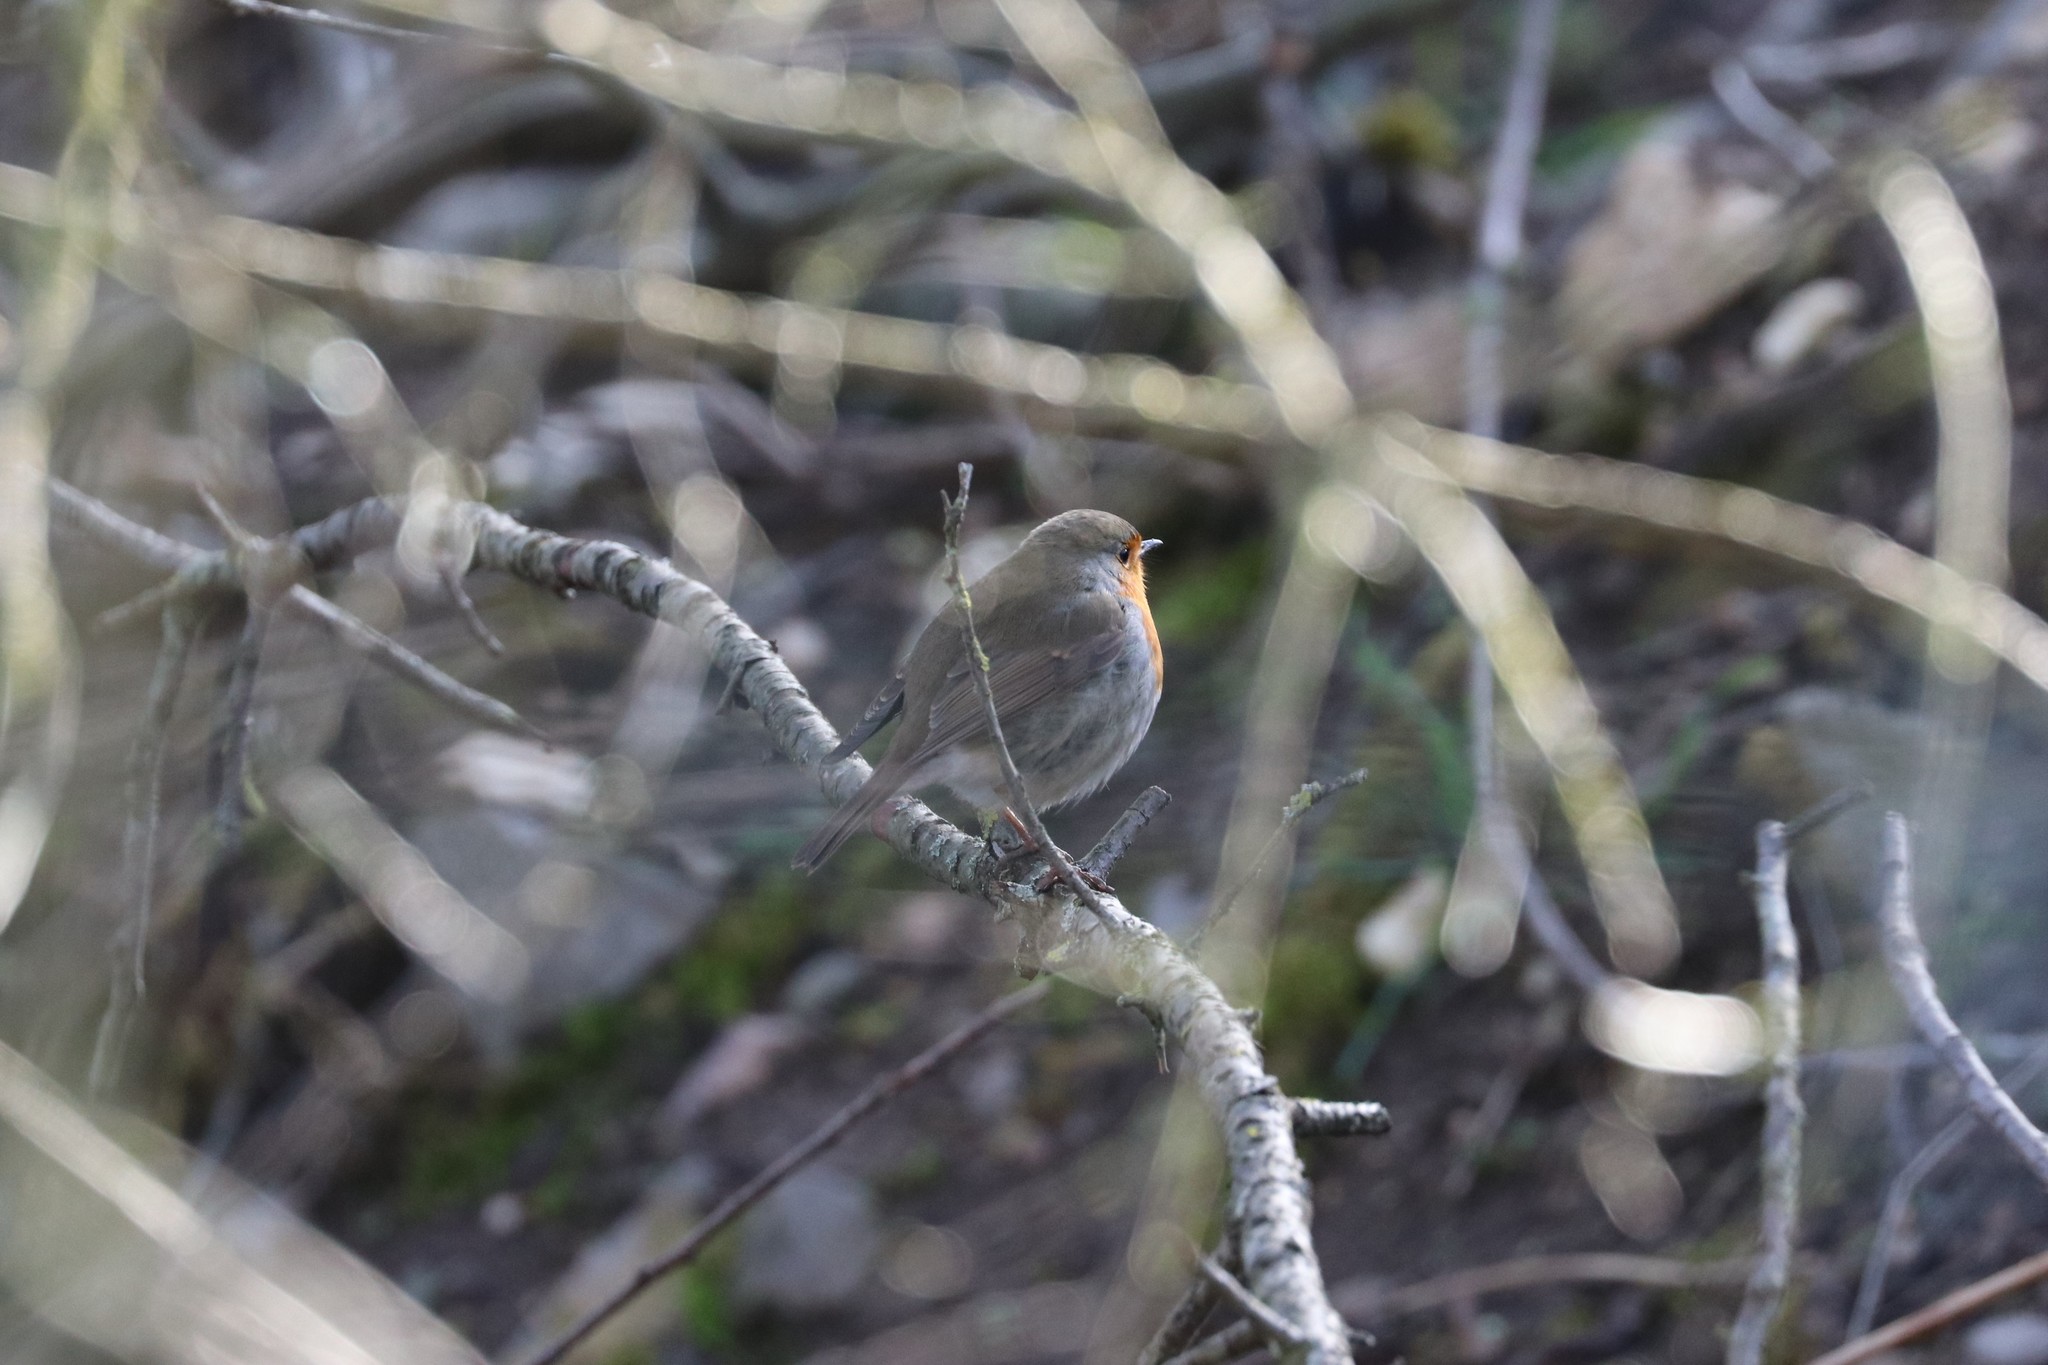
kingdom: Animalia
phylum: Chordata
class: Aves
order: Passeriformes
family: Muscicapidae
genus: Erithacus
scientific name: Erithacus rubecula
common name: European robin
